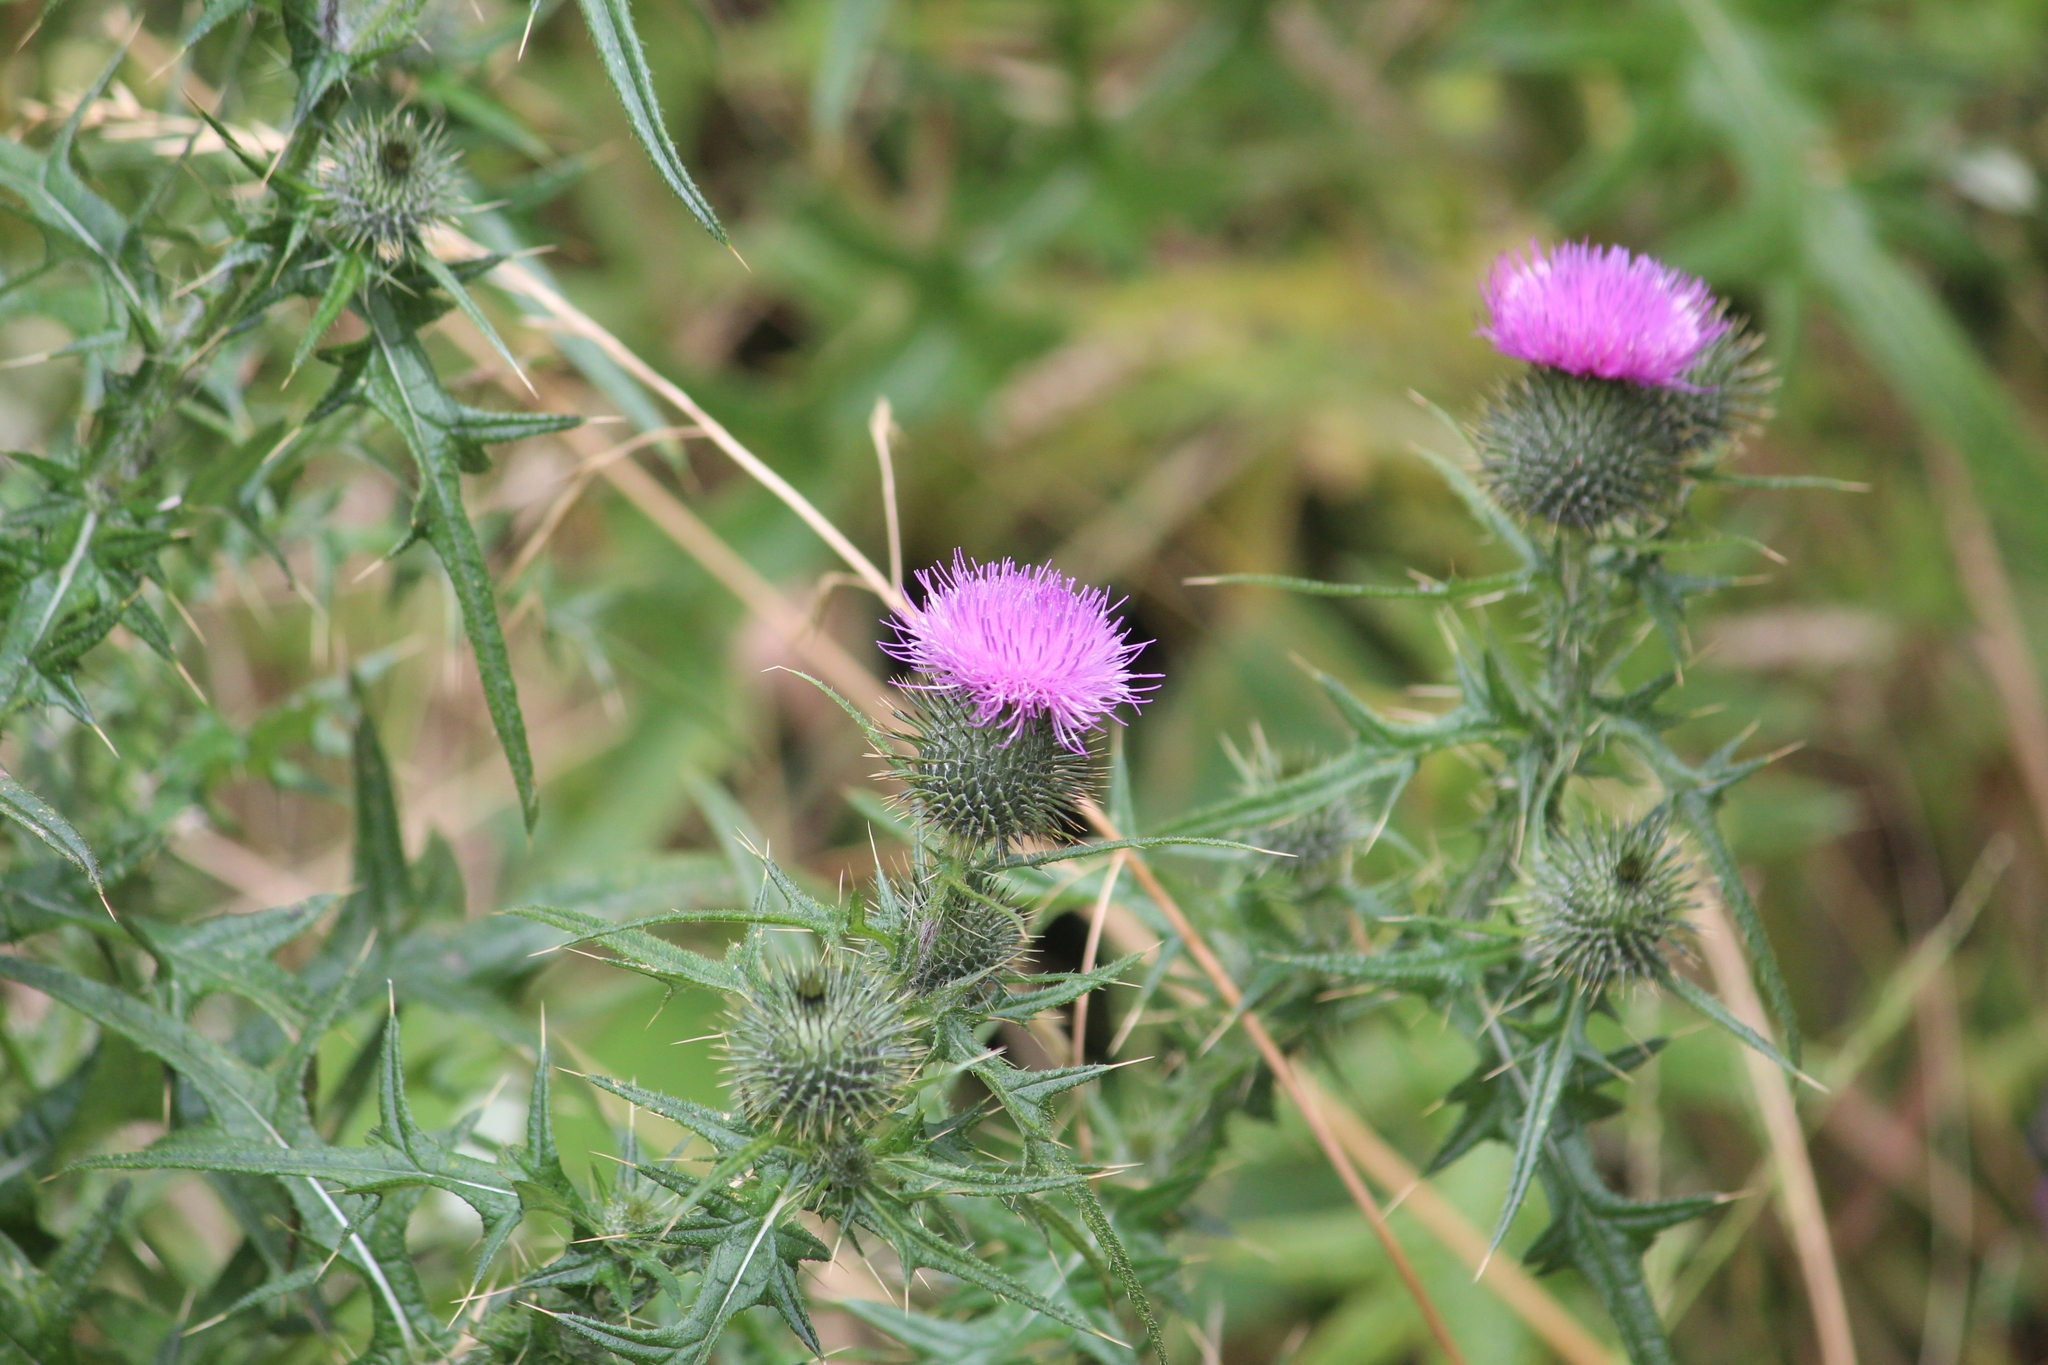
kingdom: Plantae
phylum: Tracheophyta
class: Magnoliopsida
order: Asterales
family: Asteraceae
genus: Cirsium
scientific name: Cirsium vulgare
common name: Bull thistle
